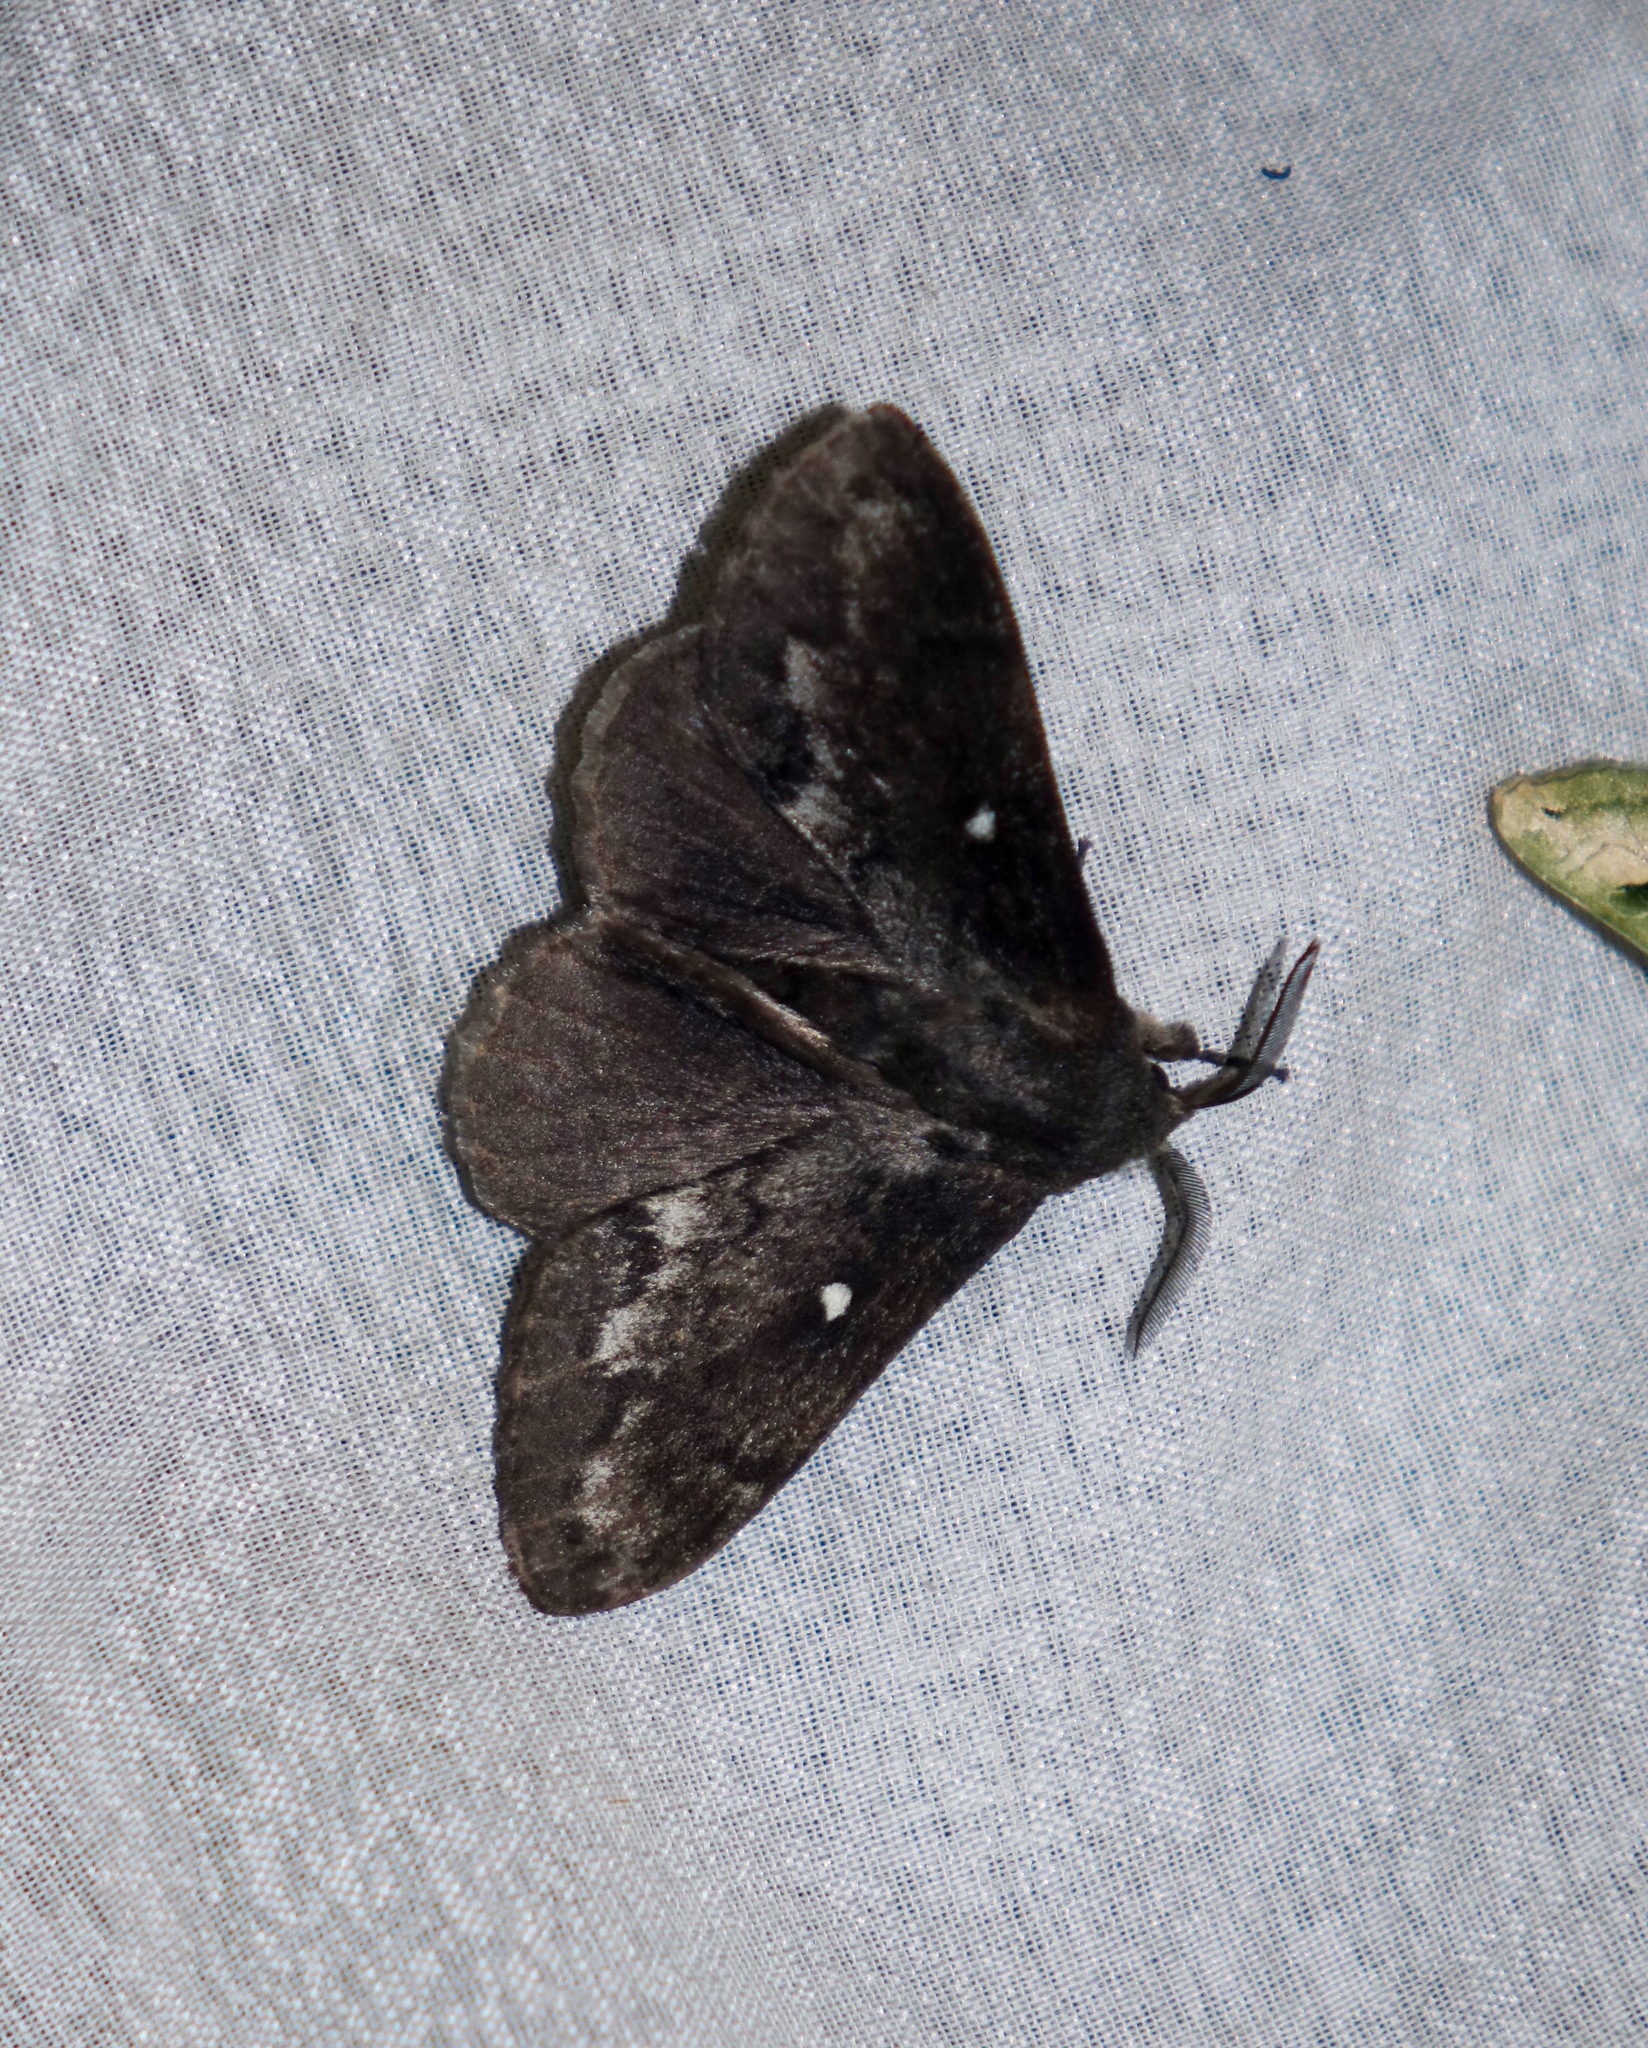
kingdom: Animalia
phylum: Arthropoda
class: Insecta
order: Lepidoptera
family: Lasiocampidae
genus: Dendrolimus
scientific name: Dendrolimus pini
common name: Pine-tree lappet
